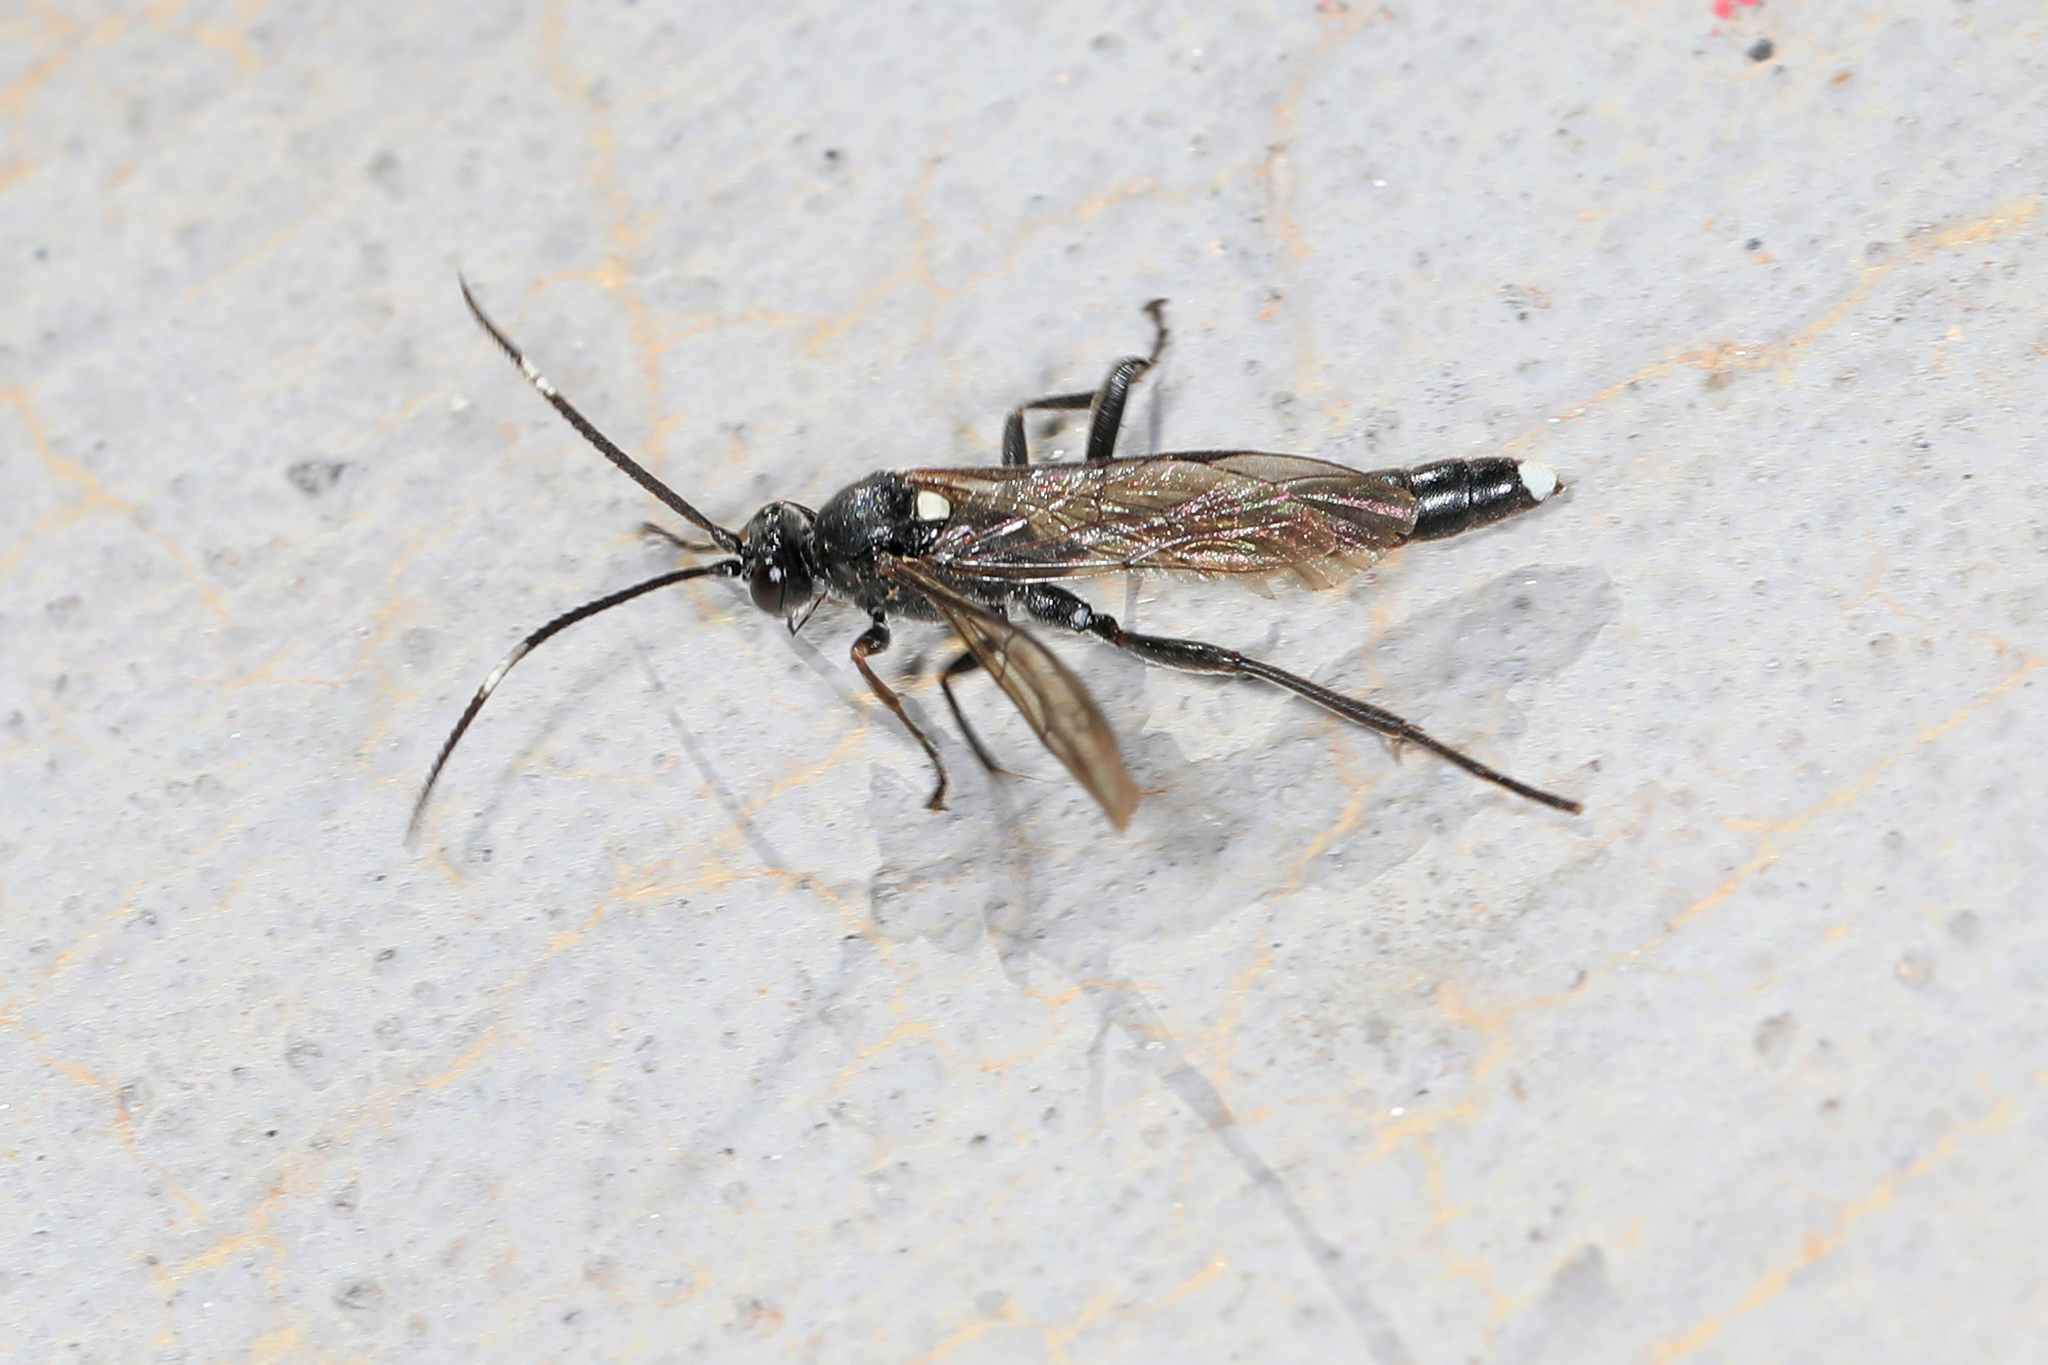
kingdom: Animalia
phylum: Arthropoda
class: Insecta
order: Hymenoptera
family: Ichneumonidae
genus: Vulgichneumon
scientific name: Vulgichneumon brevicinctor
